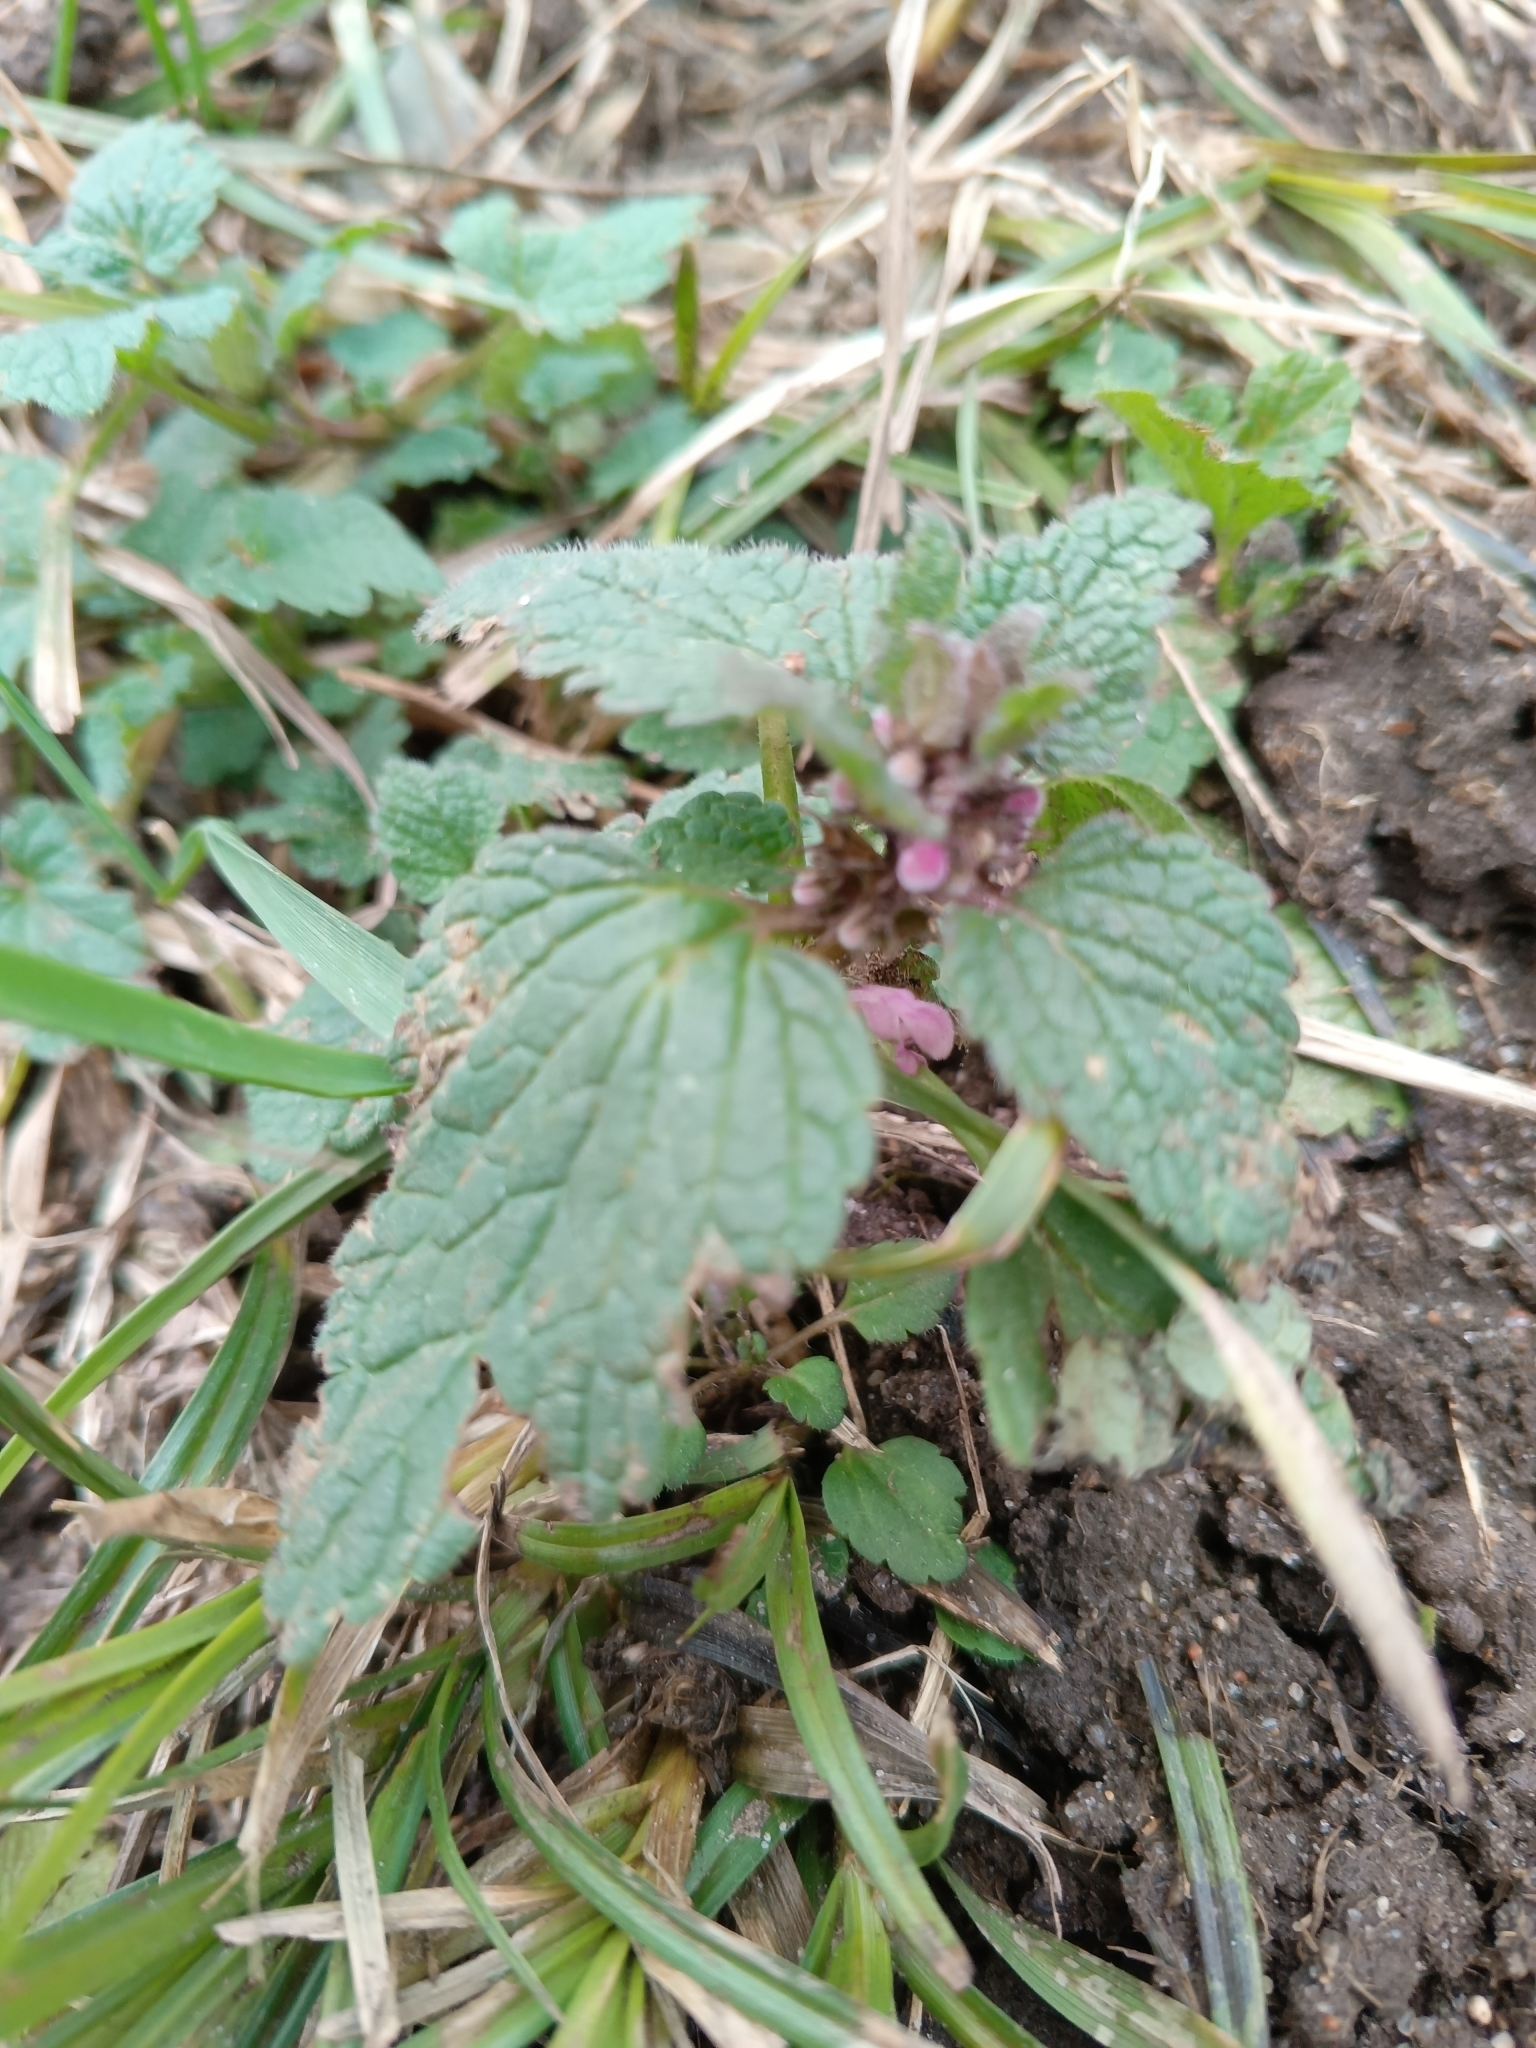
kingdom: Plantae
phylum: Tracheophyta
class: Magnoliopsida
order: Lamiales
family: Lamiaceae
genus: Lamium
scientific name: Lamium purpureum
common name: Red dead-nettle
